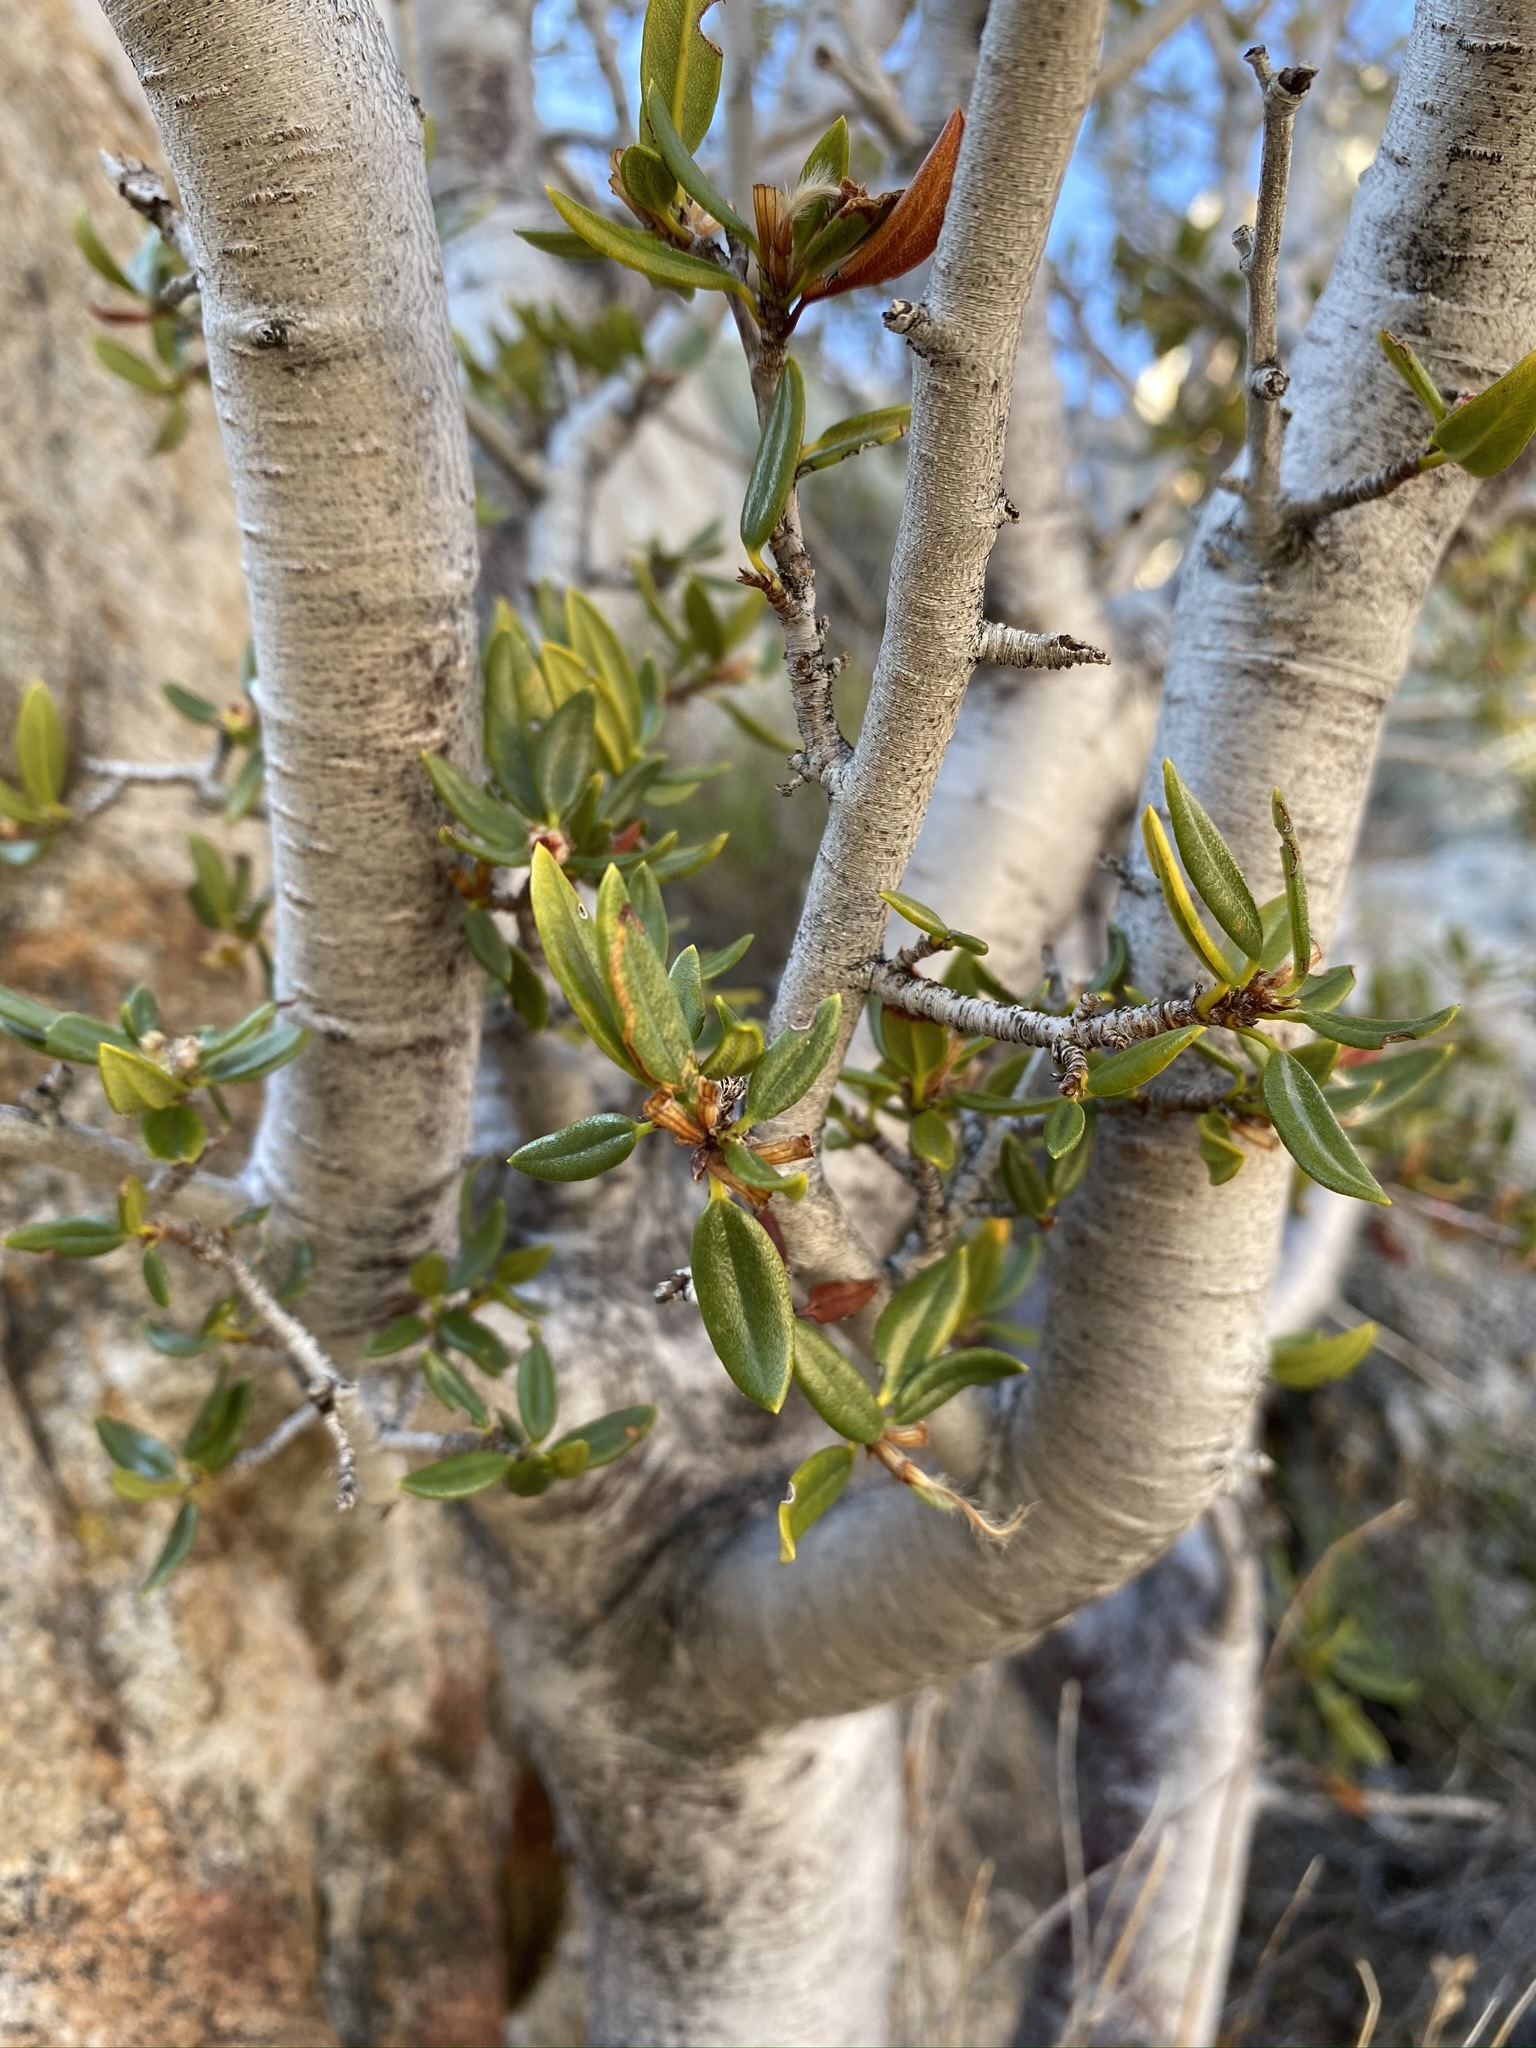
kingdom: Plantae
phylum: Tracheophyta
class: Magnoliopsida
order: Rosales
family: Rosaceae
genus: Cercocarpus
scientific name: Cercocarpus ledifolius
